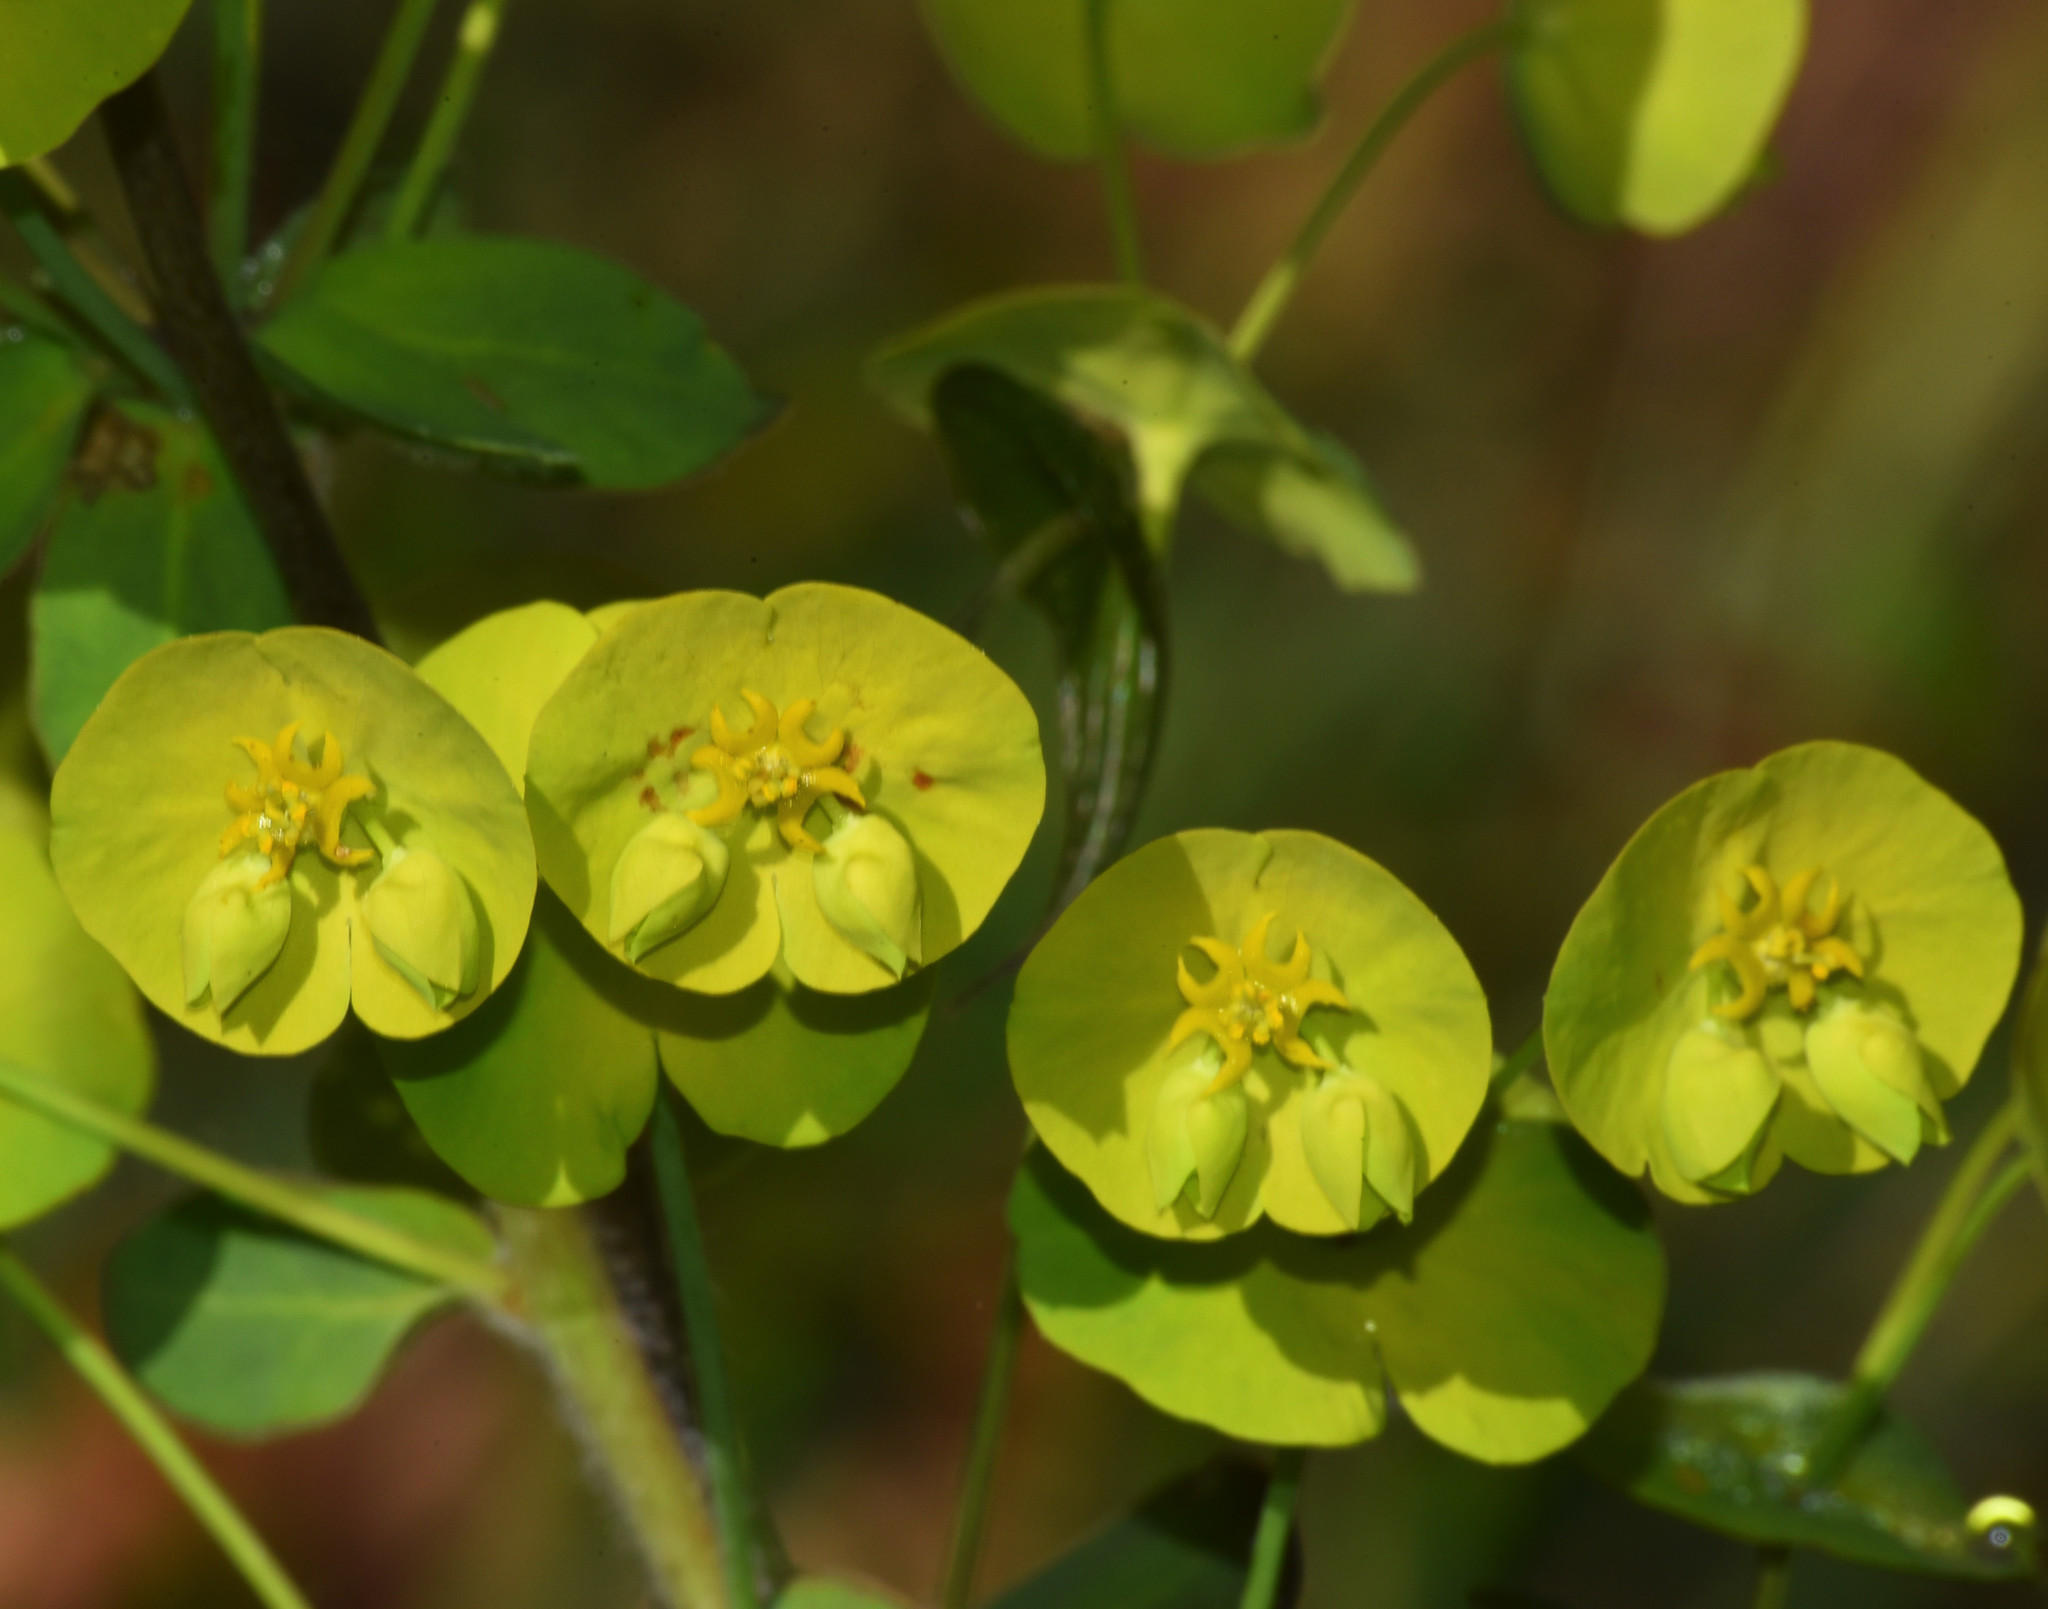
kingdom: Plantae
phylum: Tracheophyta
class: Magnoliopsida
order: Malpighiales
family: Euphorbiaceae
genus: Euphorbia
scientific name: Euphorbia amygdaloides
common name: Wood spurge
